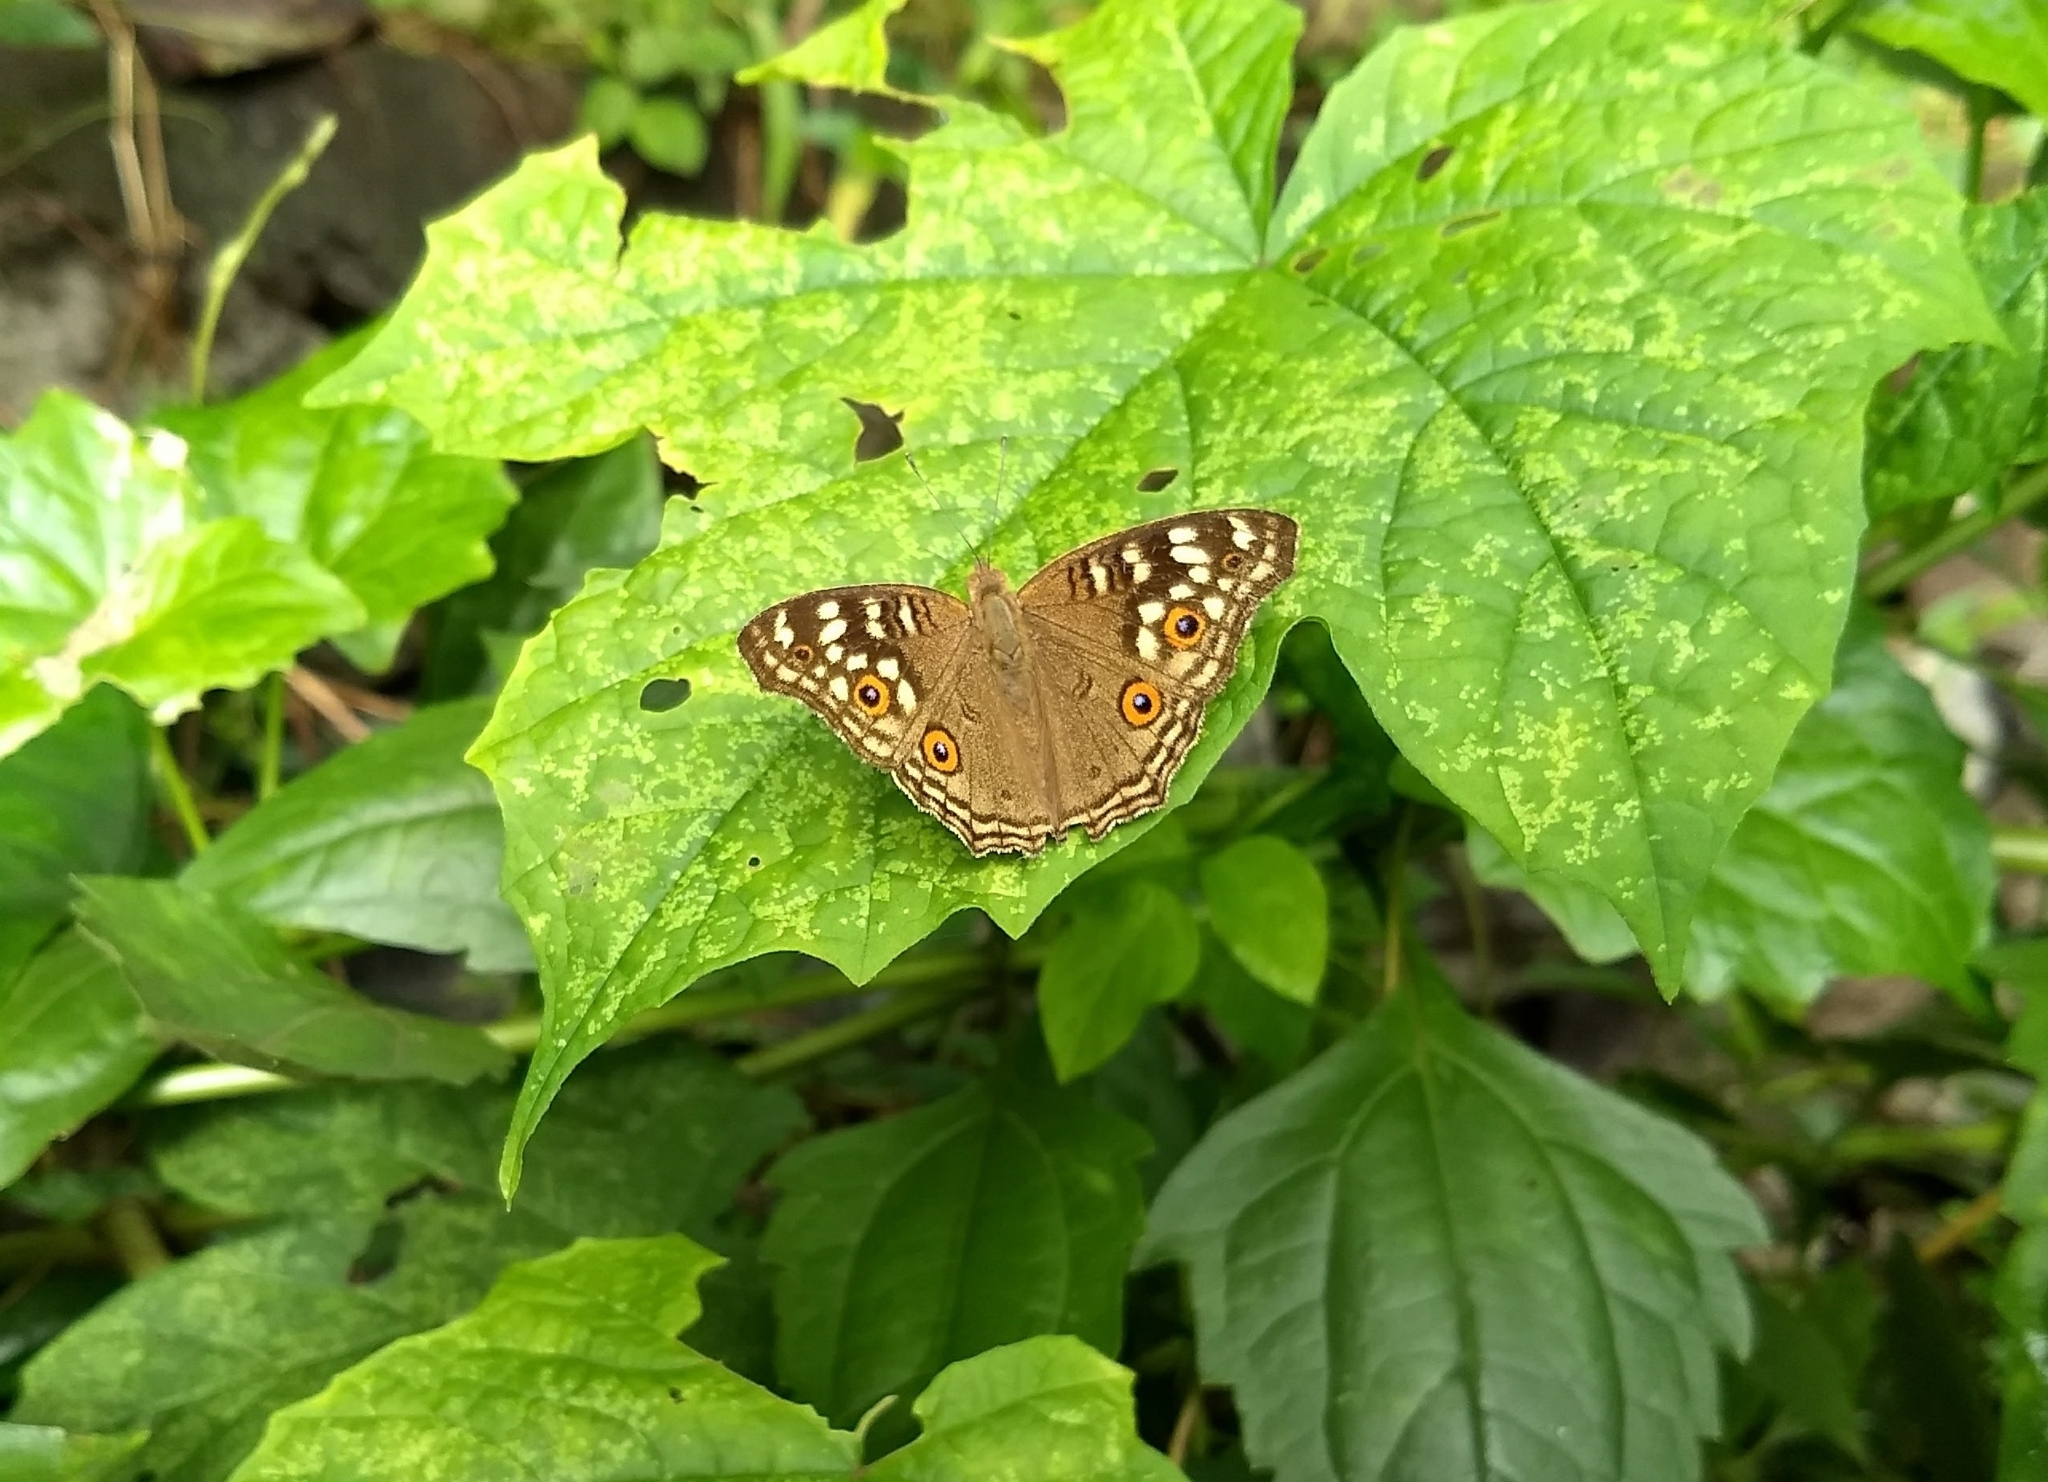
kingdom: Animalia
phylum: Arthropoda
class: Insecta
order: Lepidoptera
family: Nymphalidae
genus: Junonia
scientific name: Junonia lemonias
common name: Lemon pansy
